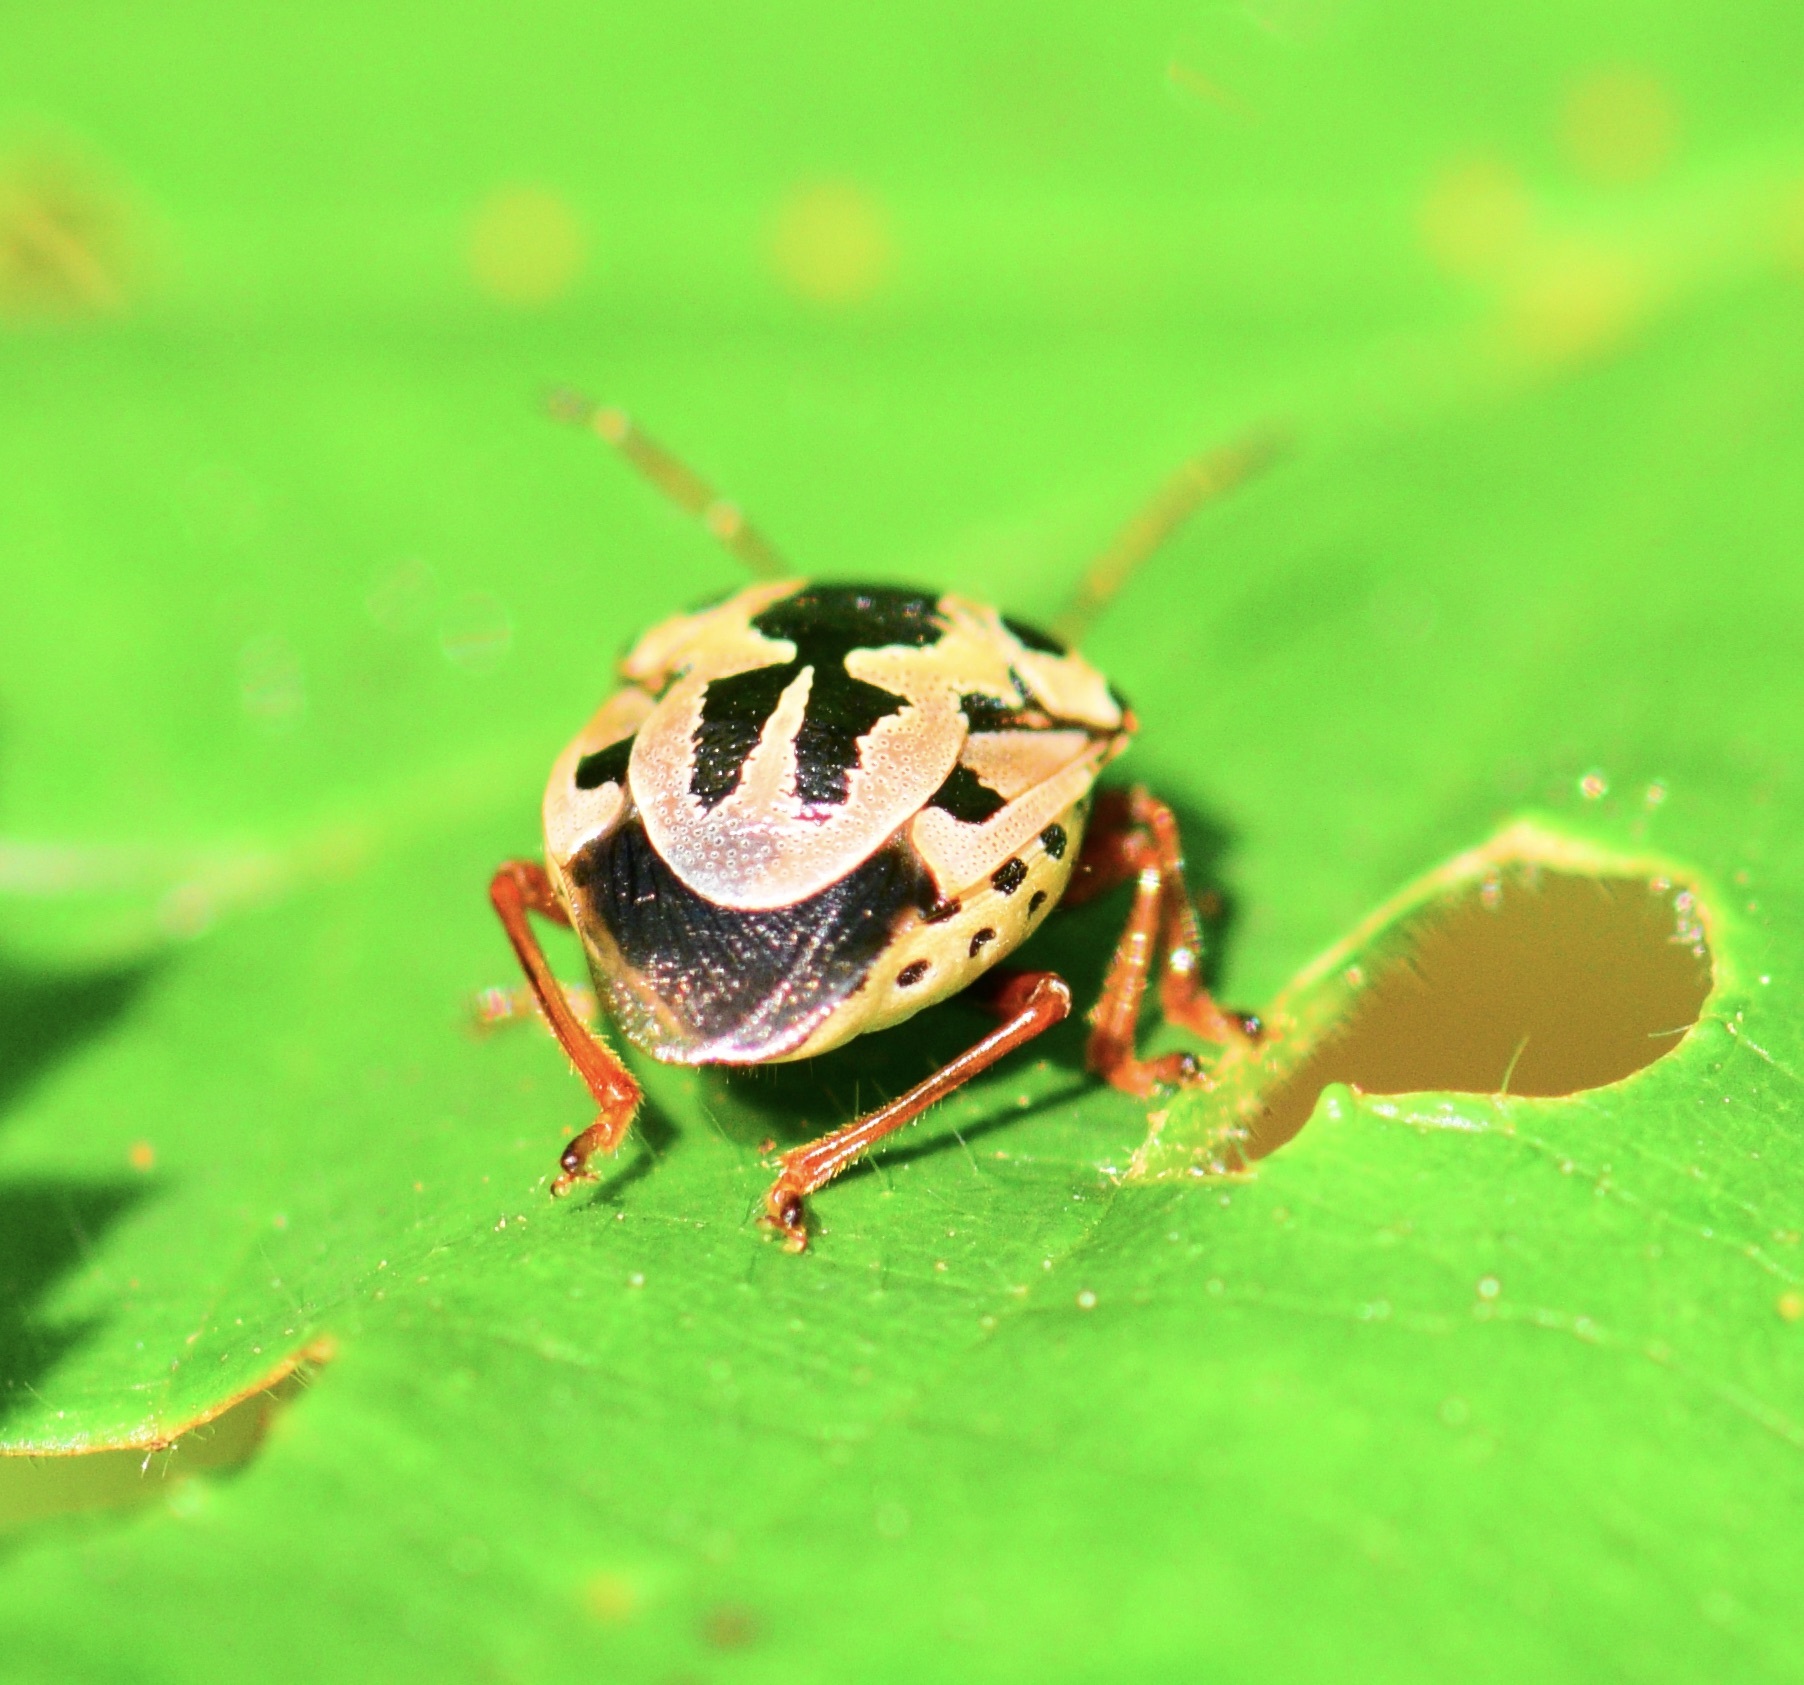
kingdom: Animalia
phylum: Arthropoda
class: Insecta
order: Hemiptera
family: Pentatomidae
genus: Stiretrus
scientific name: Stiretrus anchorago
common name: Anchor stink bug
